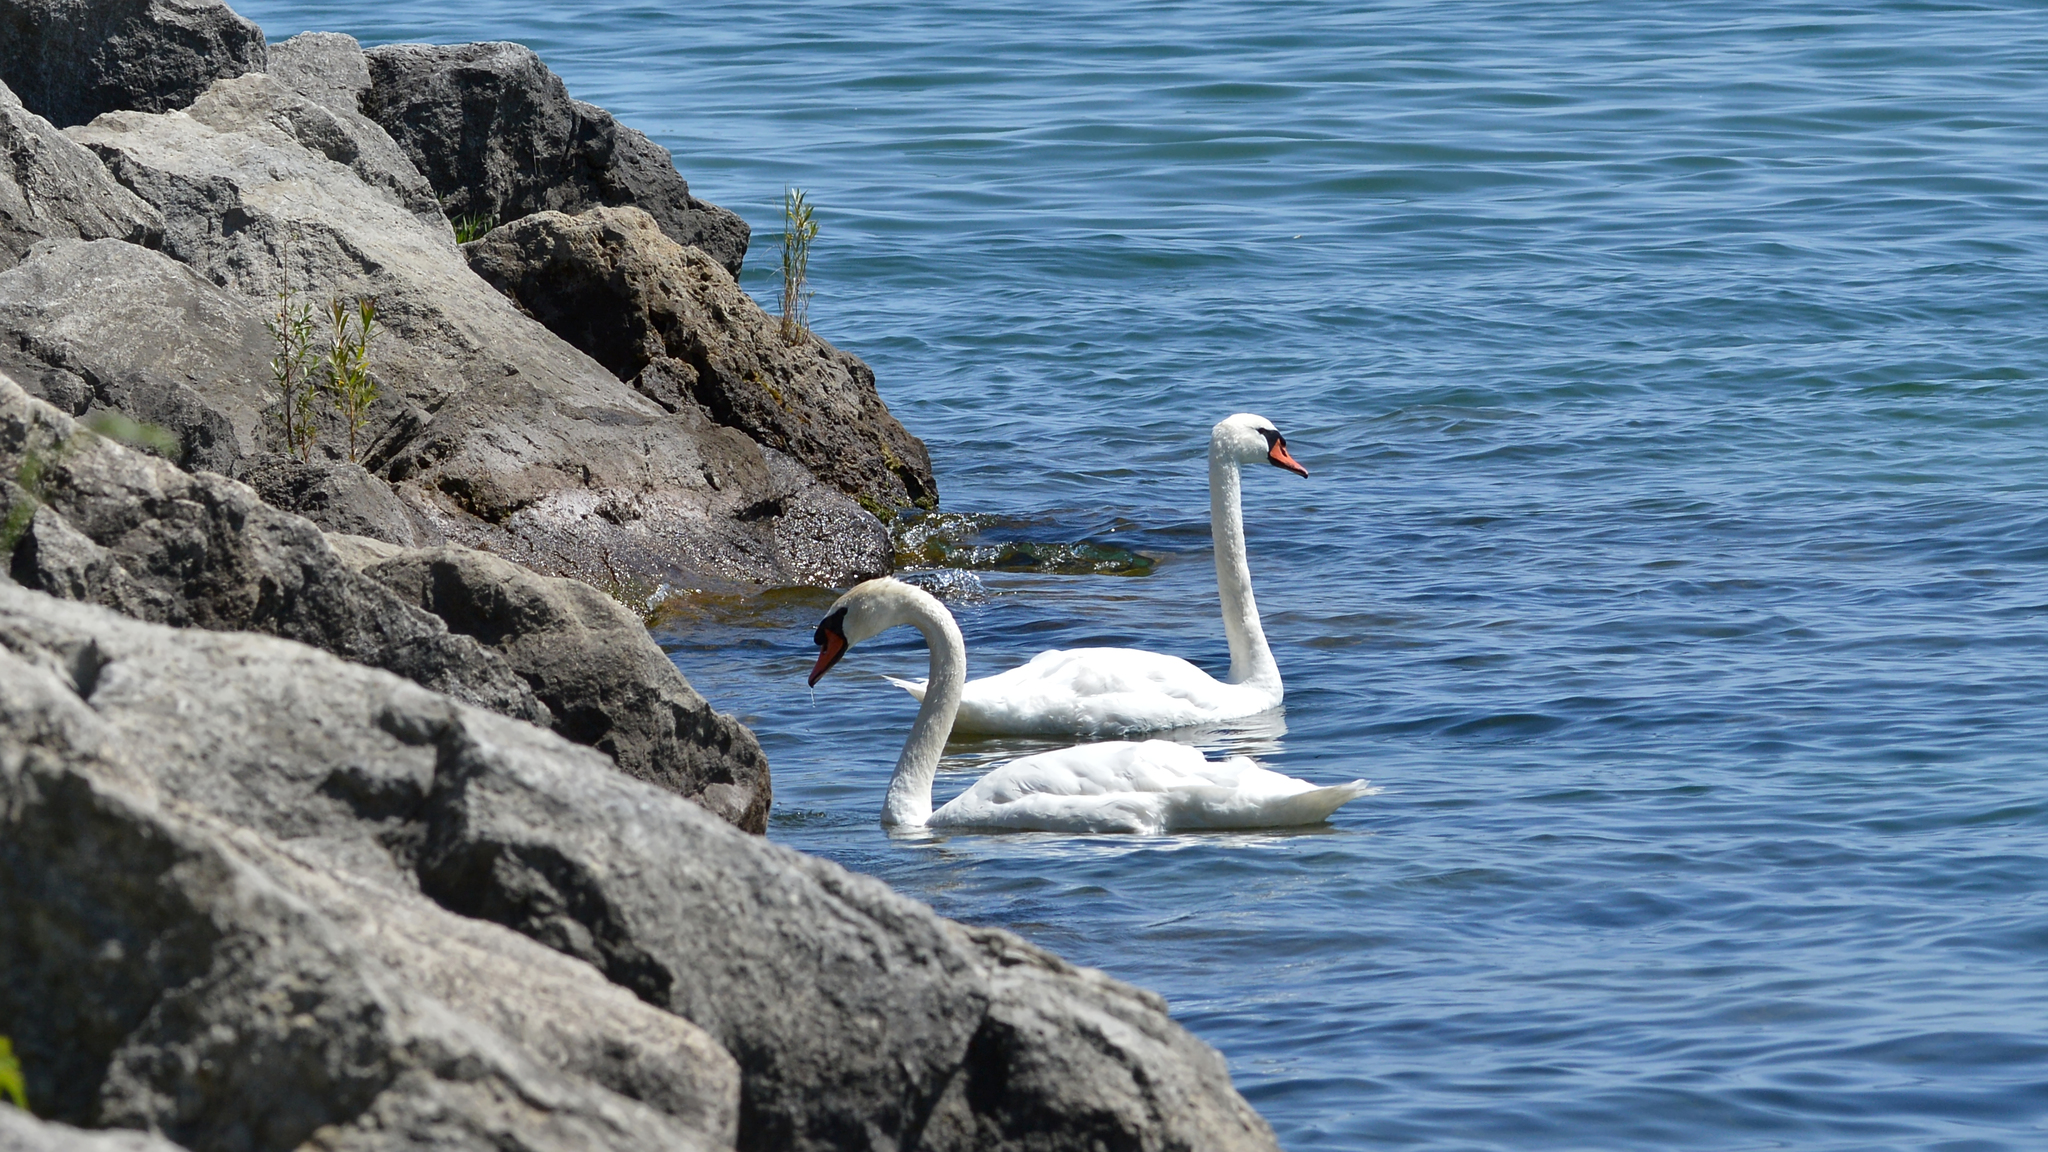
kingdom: Animalia
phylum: Chordata
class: Aves
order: Anseriformes
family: Anatidae
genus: Cygnus
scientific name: Cygnus olor
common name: Mute swan
